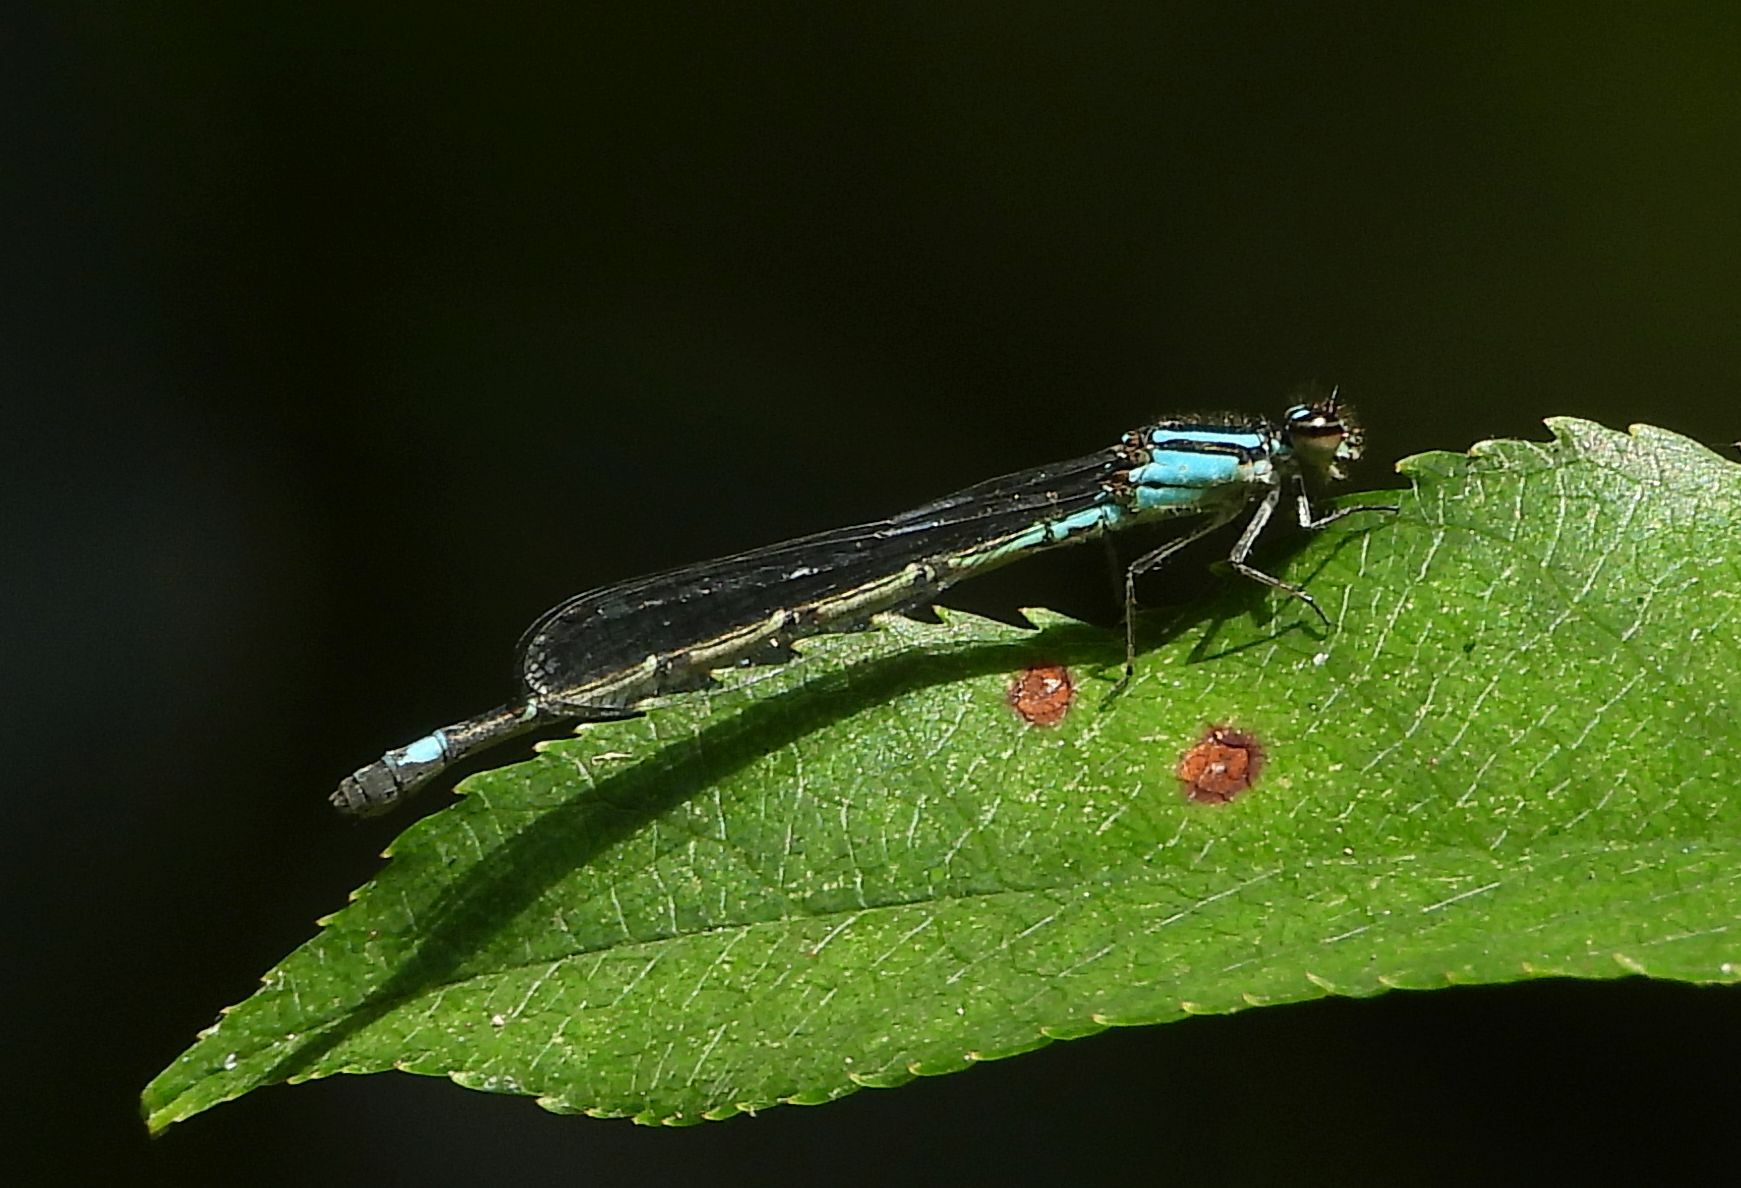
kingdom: Animalia
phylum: Arthropoda
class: Insecta
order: Odonata
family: Coenagrionidae
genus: Enallagma
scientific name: Enallagma geminatum
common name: Skimming bluet
